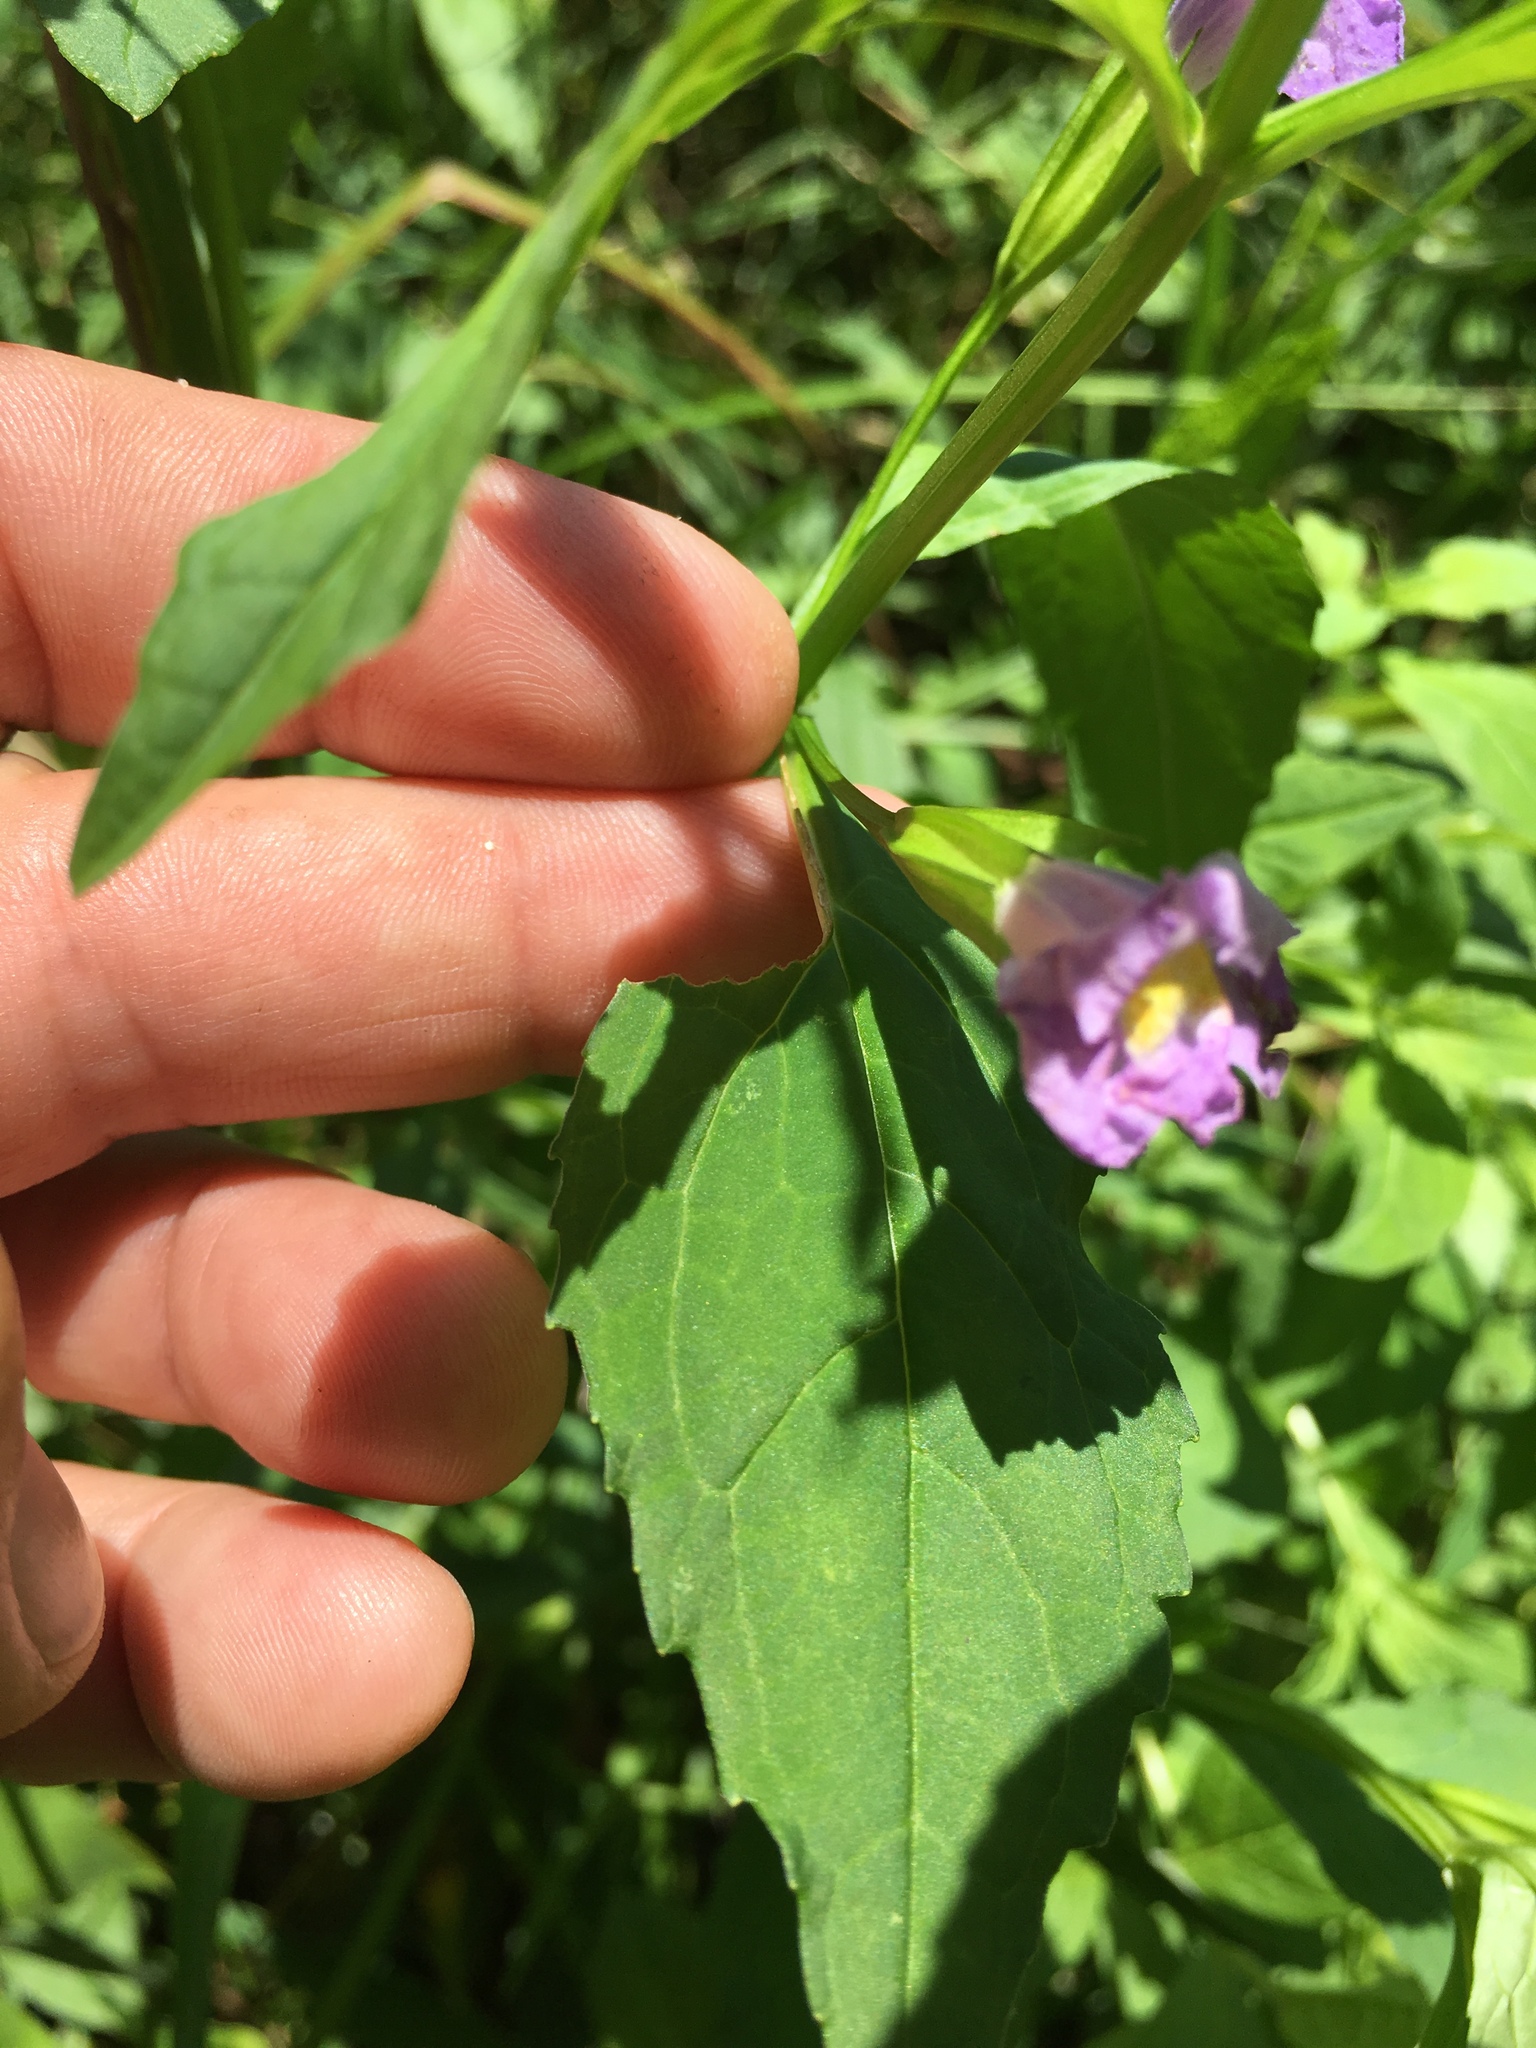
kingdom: Plantae
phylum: Tracheophyta
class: Magnoliopsida
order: Lamiales
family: Phrymaceae
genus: Mimulus
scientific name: Mimulus ringens
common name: Allegheny monkeyflower
